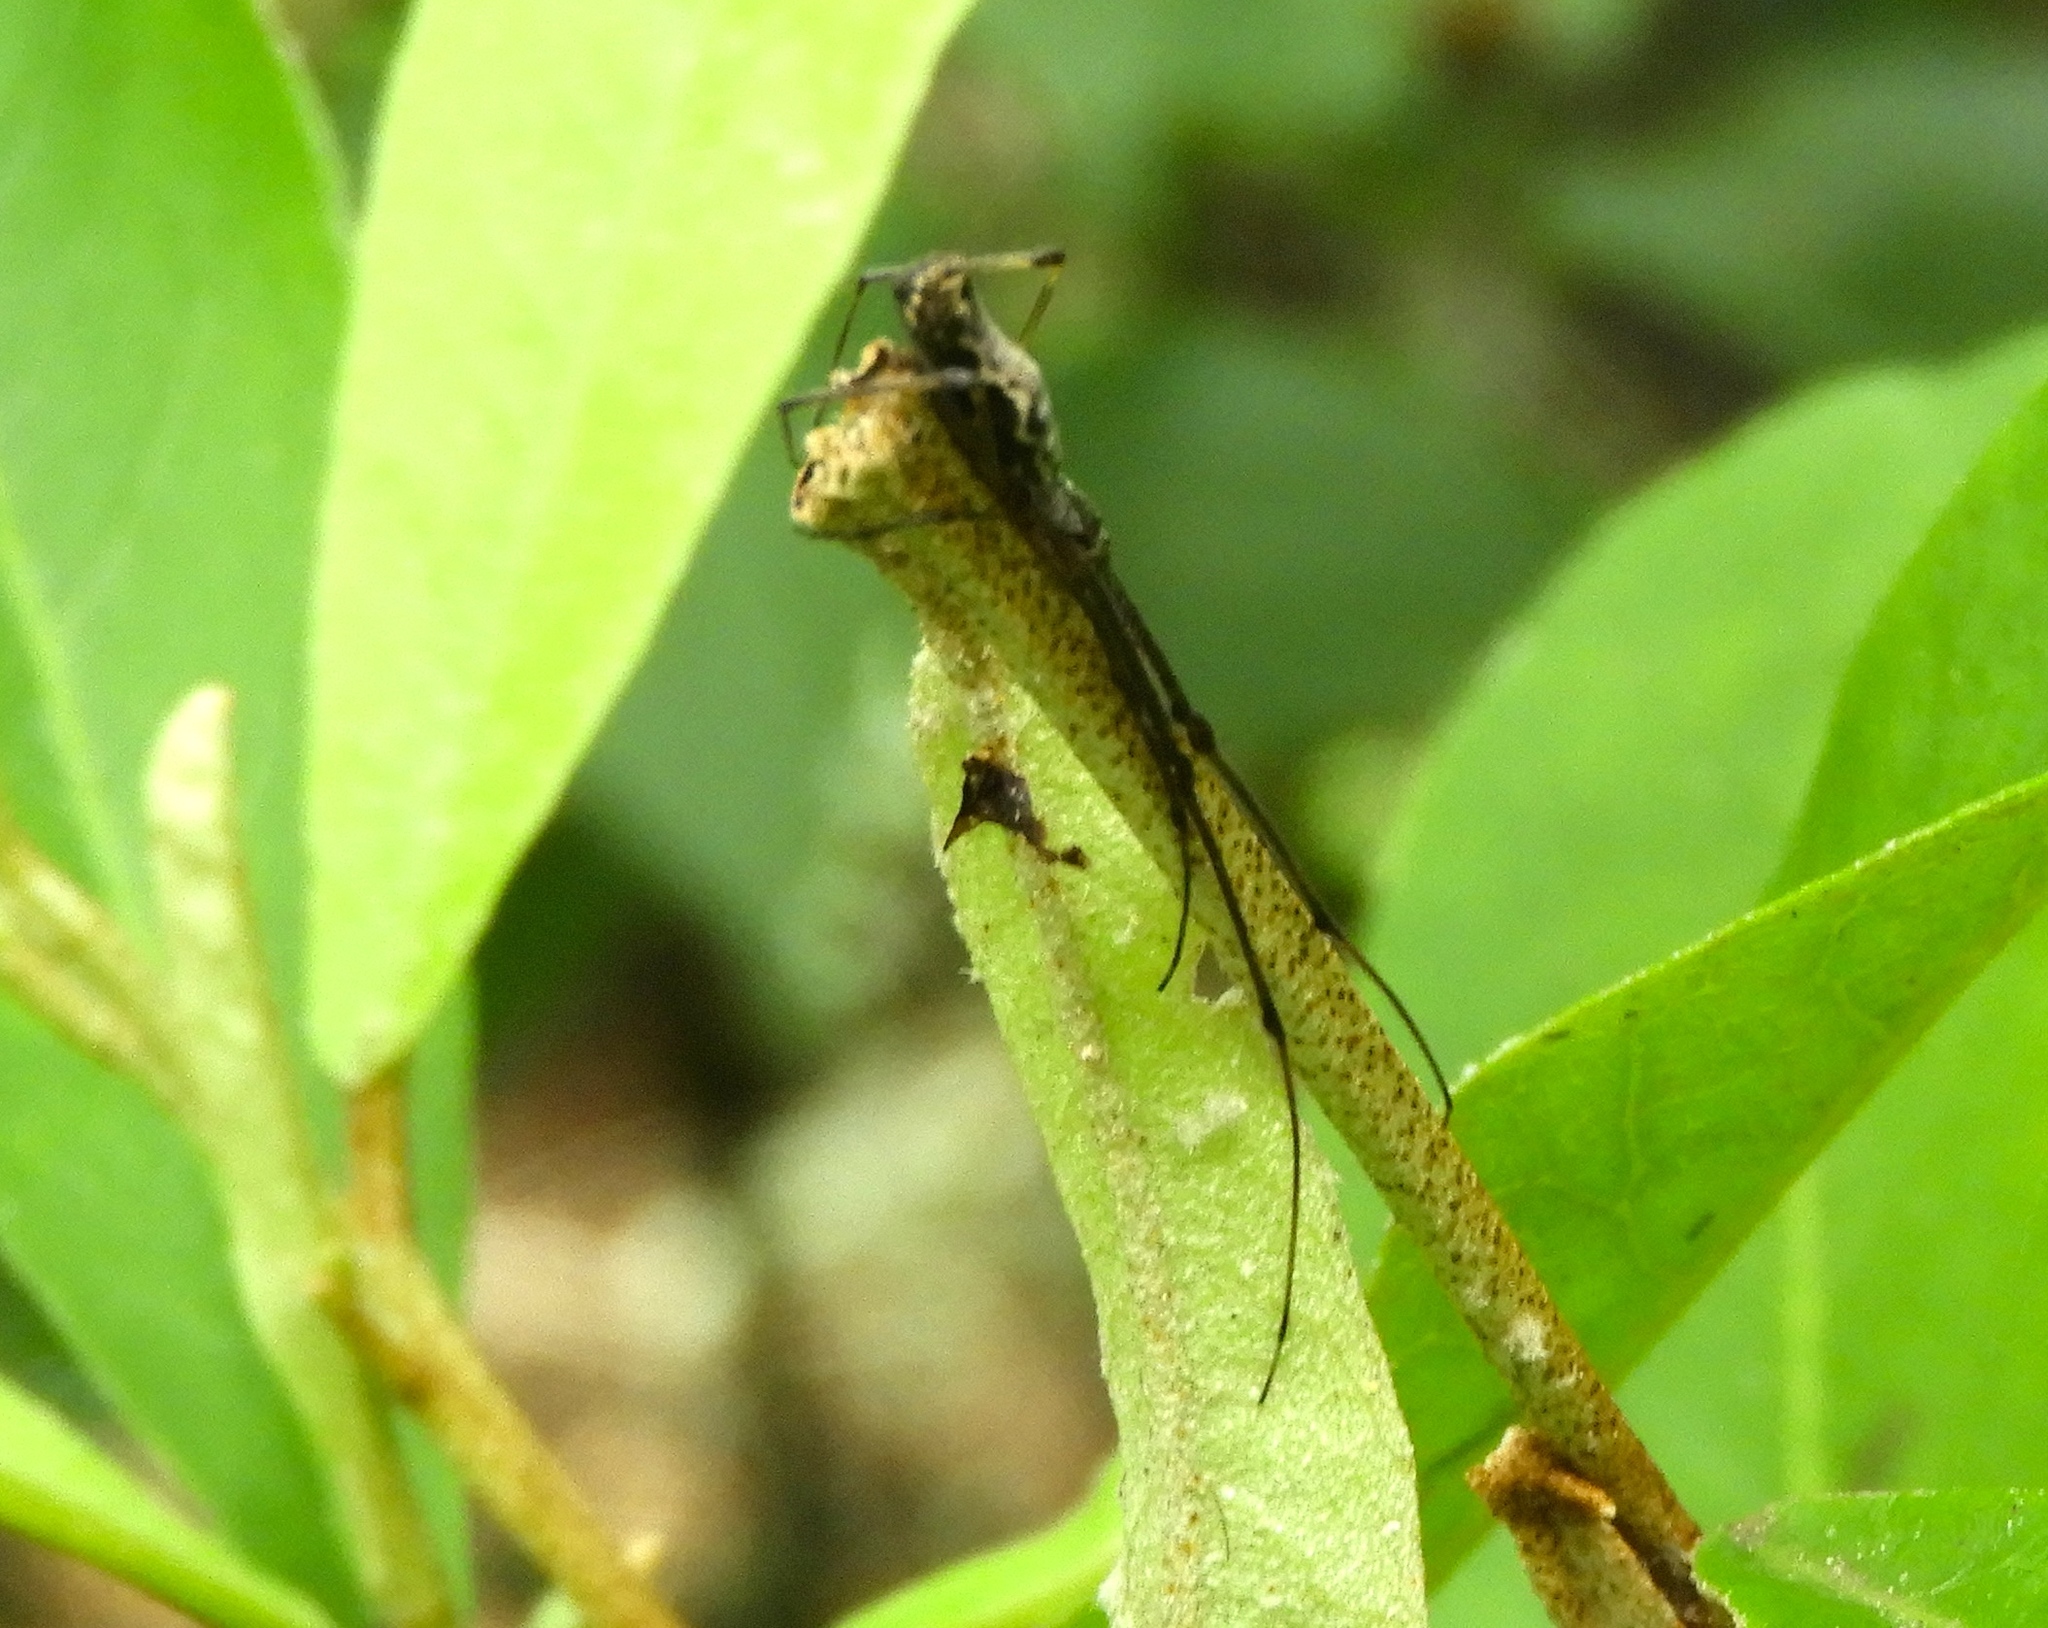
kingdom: Animalia
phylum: Arthropoda
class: Arachnida
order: Araneae
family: Tetragnathidae
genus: Tetragnatha
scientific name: Tetragnatha
